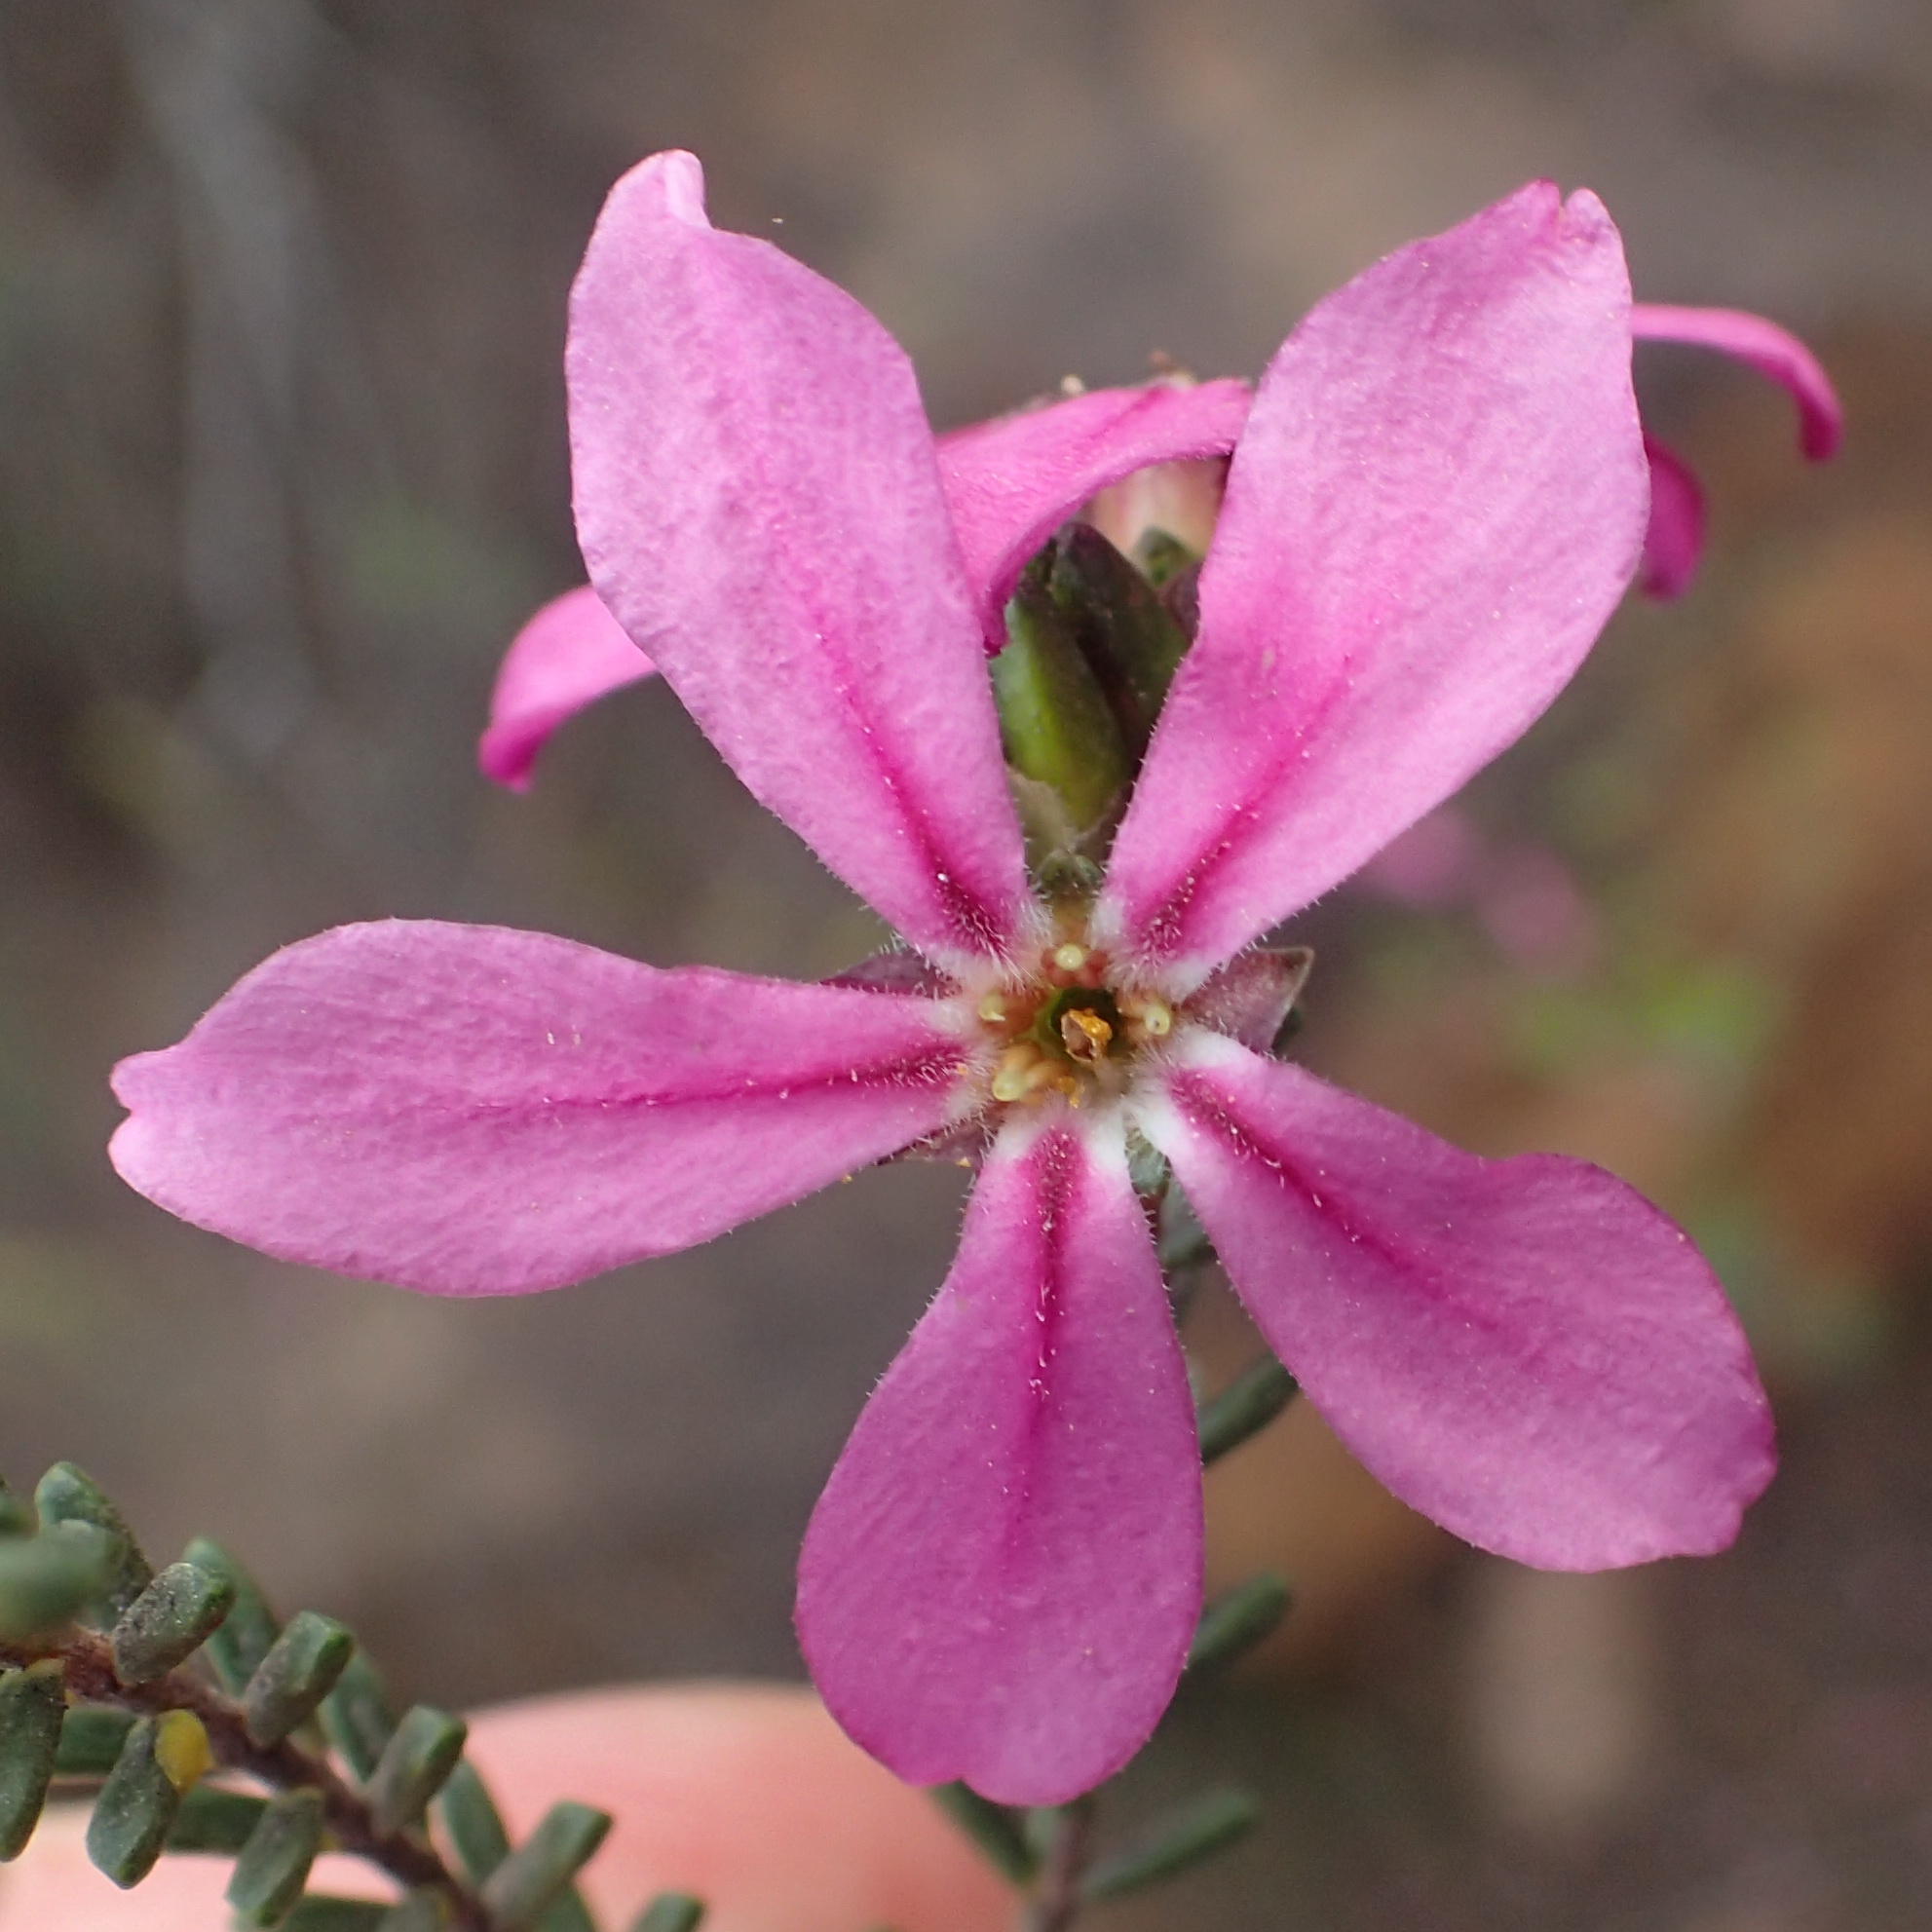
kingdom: Plantae
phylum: Tracheophyta
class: Magnoliopsida
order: Sapindales
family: Rutaceae
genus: Acmadenia
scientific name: Acmadenia sheilae
